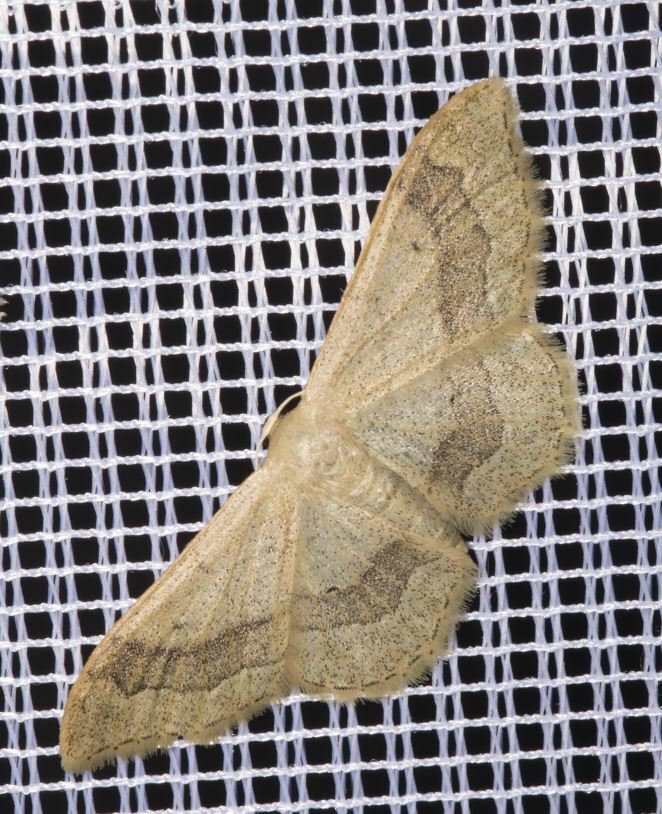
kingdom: Animalia
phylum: Arthropoda
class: Insecta
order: Lepidoptera
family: Geometridae
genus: Idaea
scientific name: Idaea aversata
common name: Riband wave
